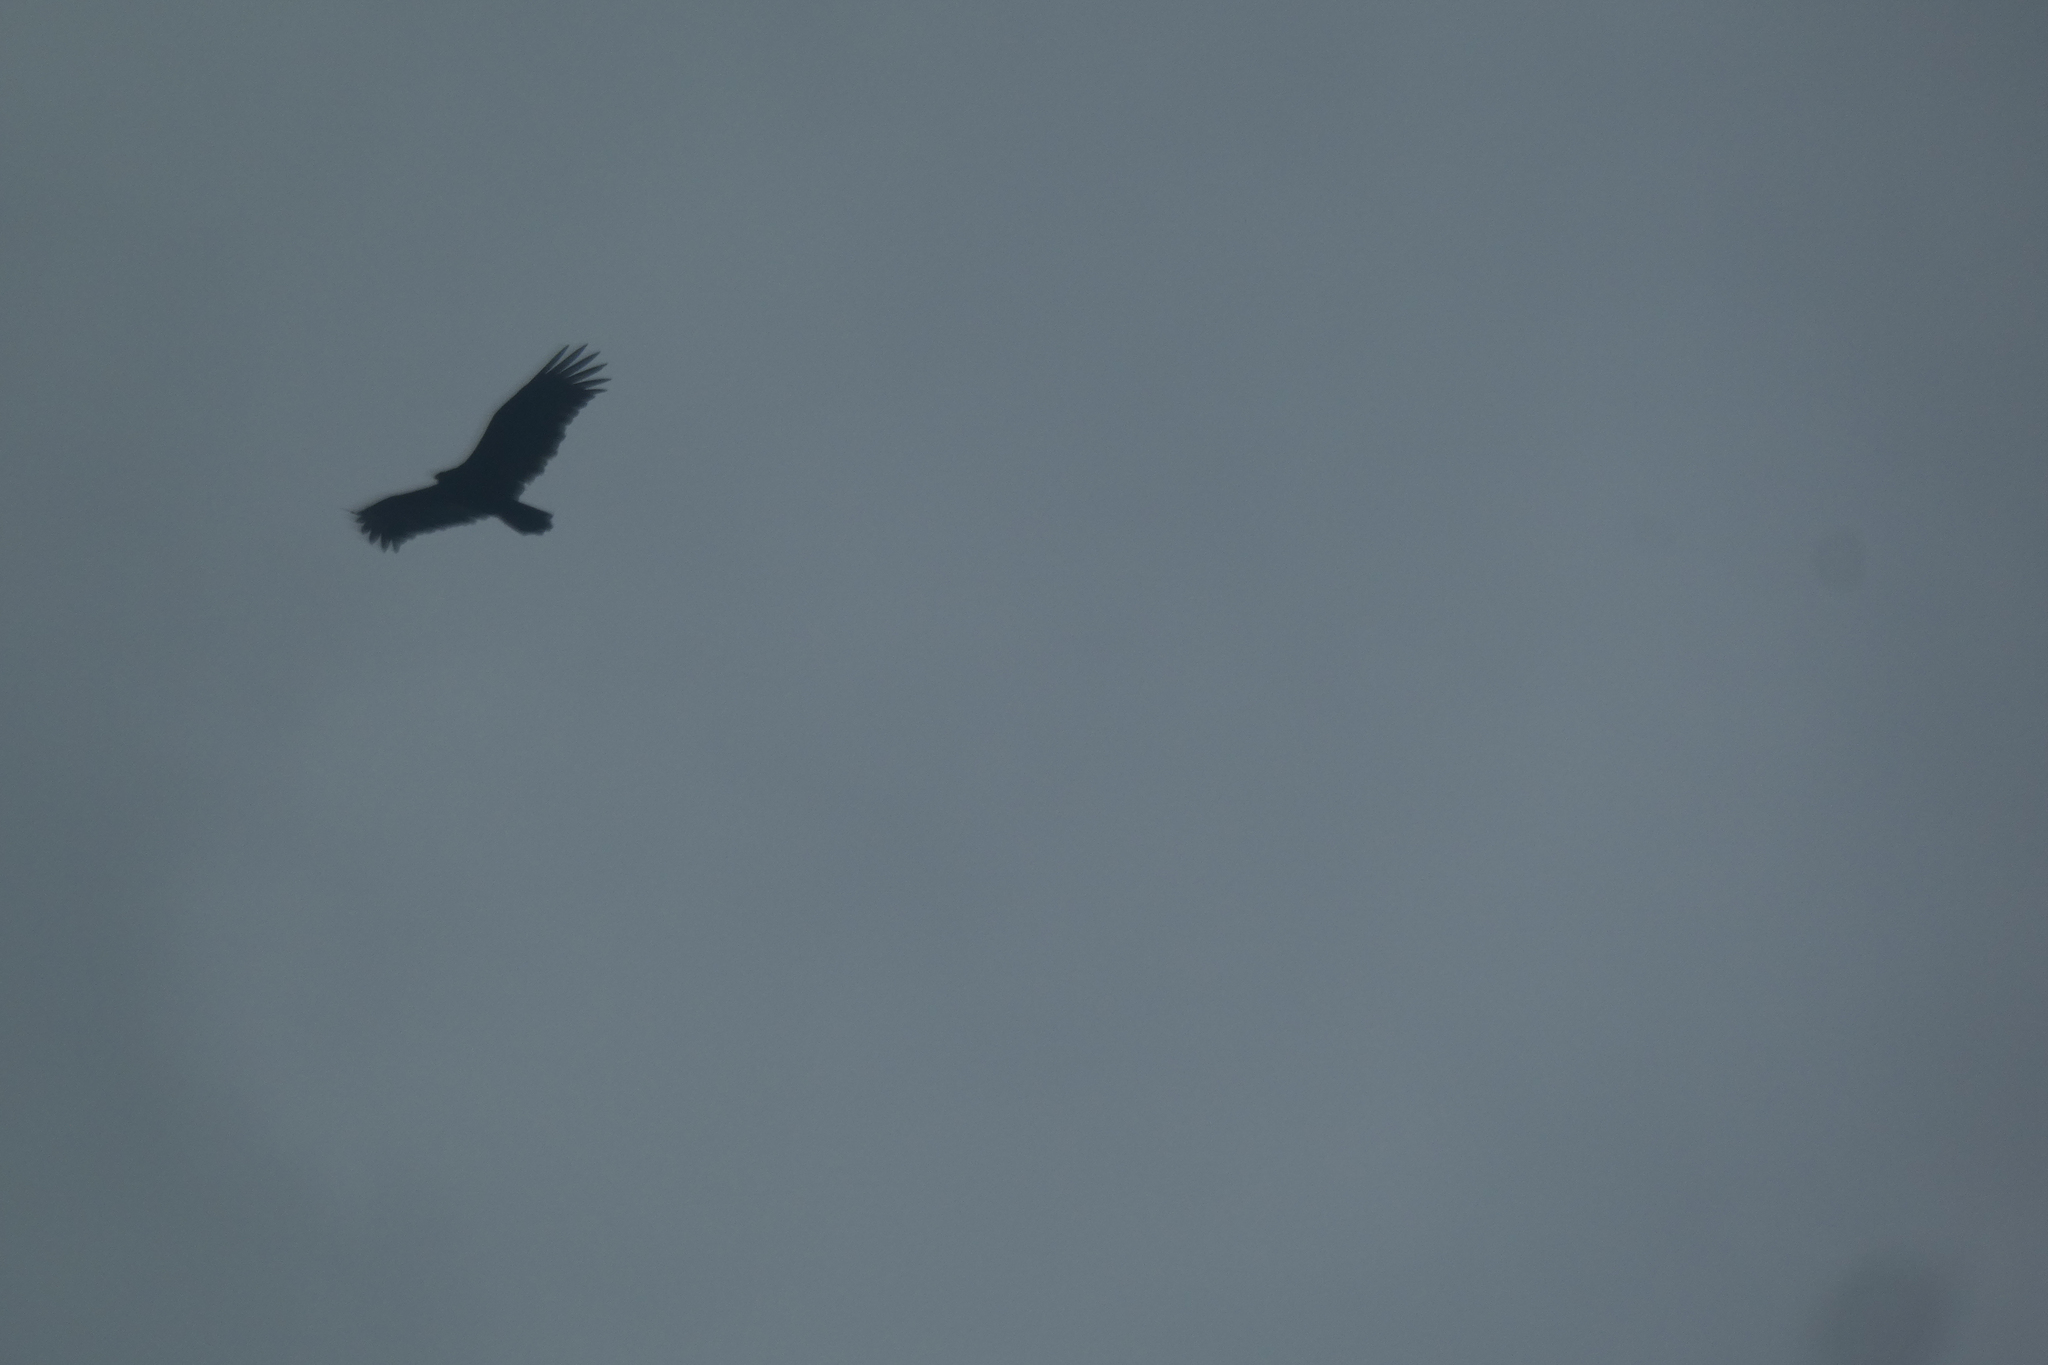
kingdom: Animalia
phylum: Chordata
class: Aves
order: Accipitriformes
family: Cathartidae
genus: Cathartes
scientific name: Cathartes aura
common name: Turkey vulture
